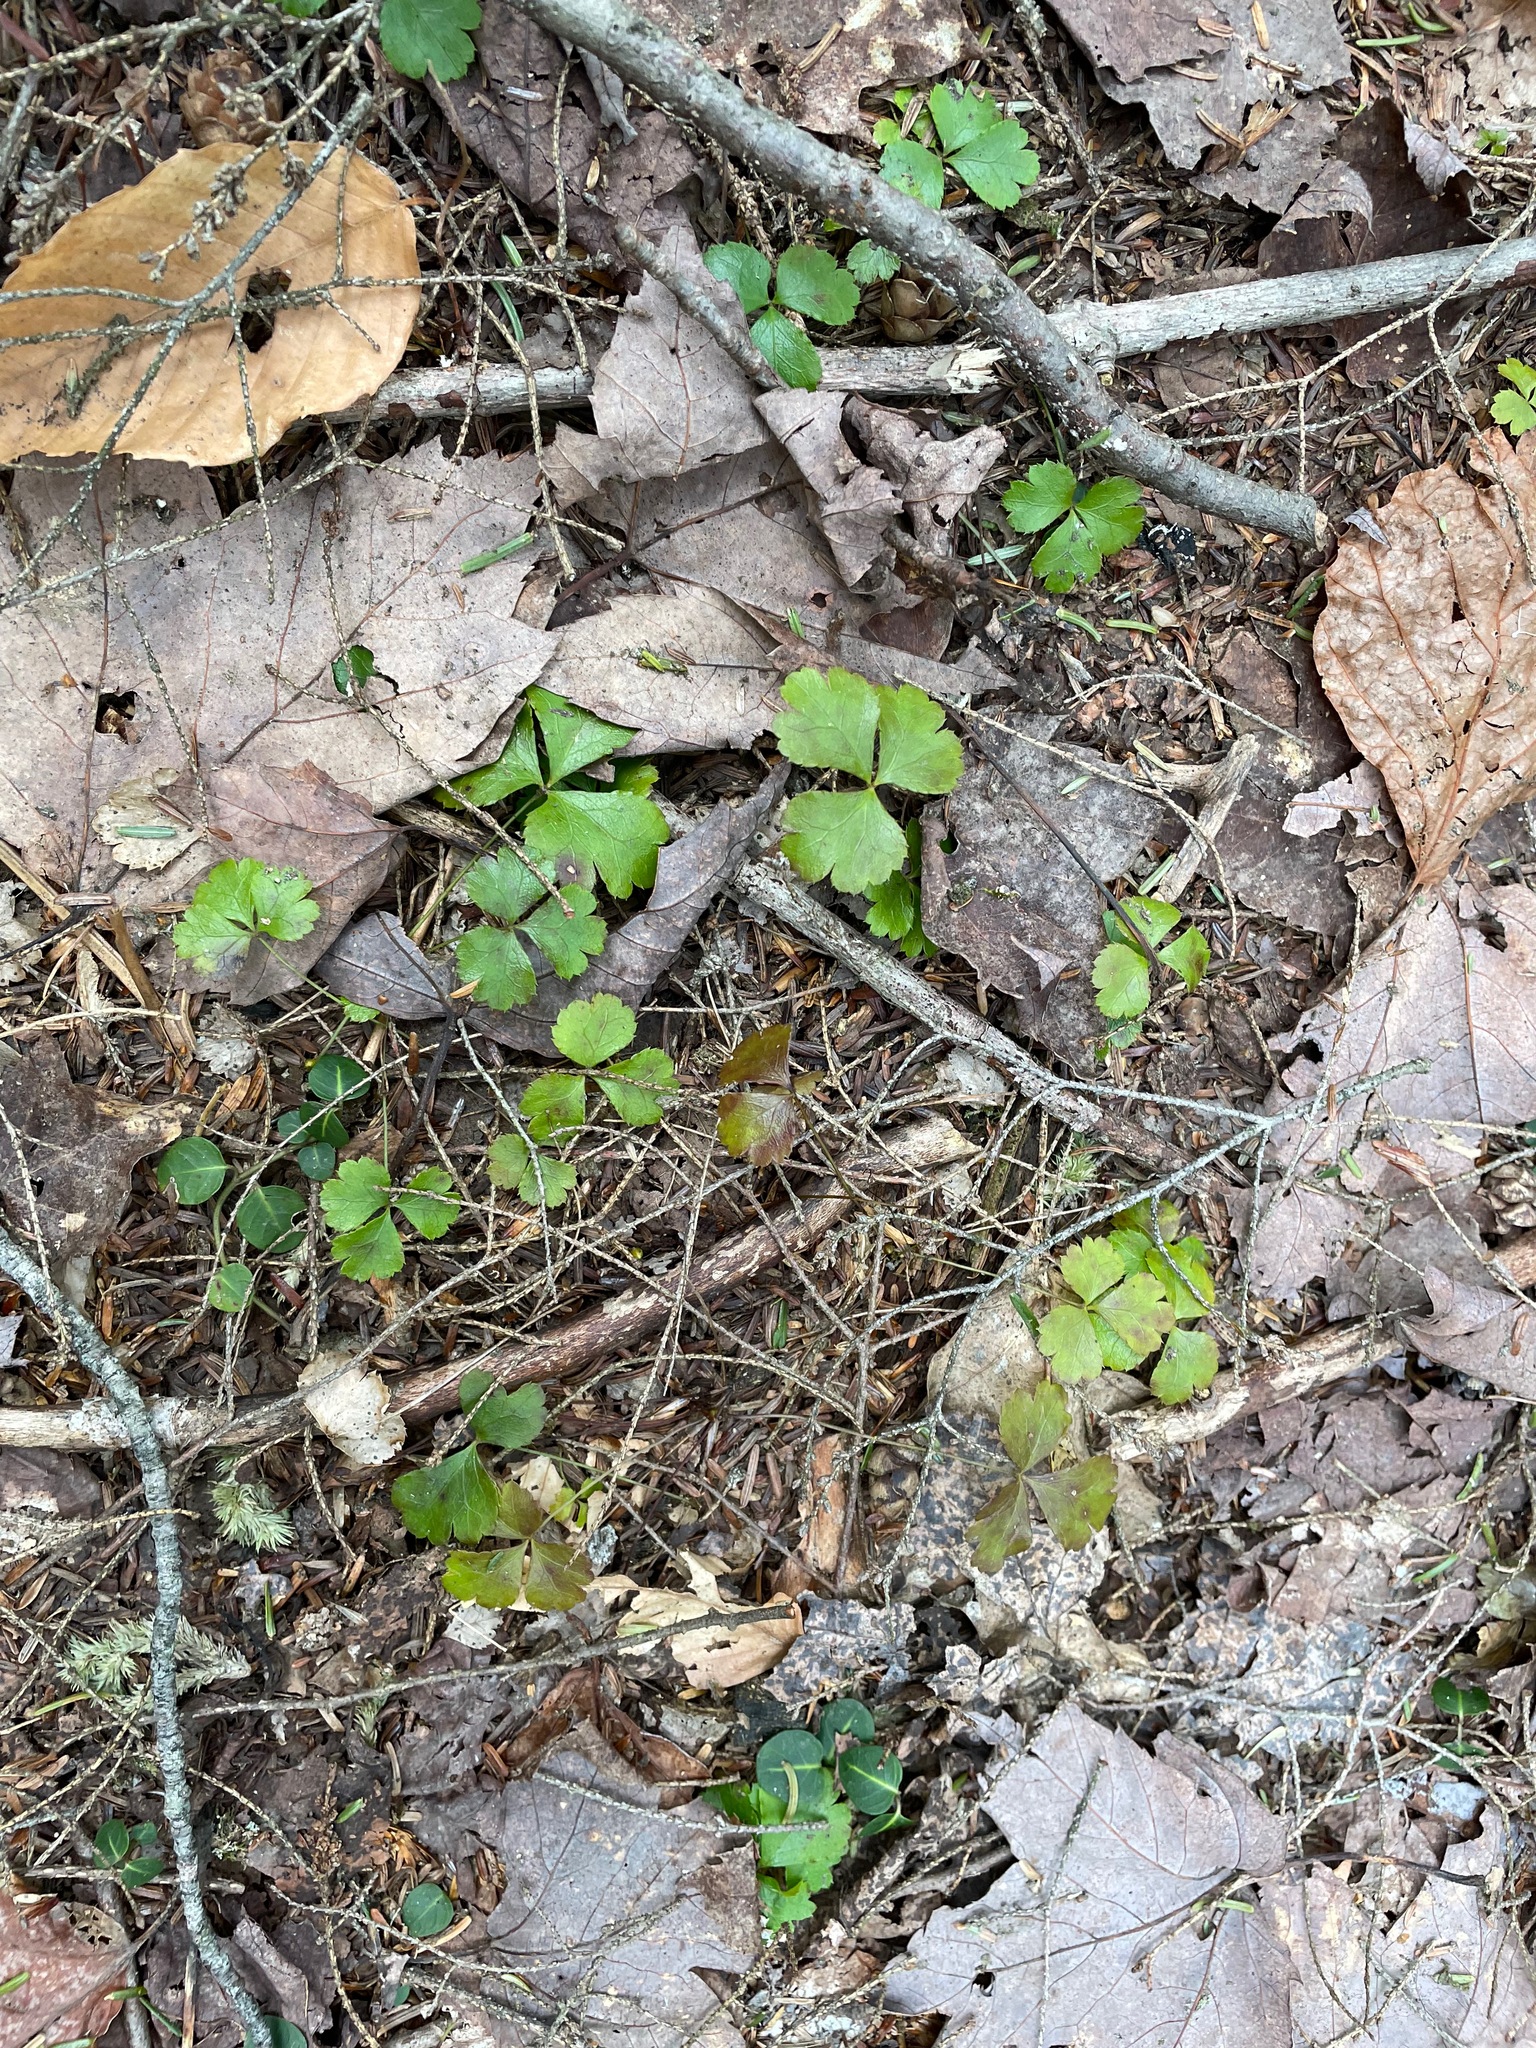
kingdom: Plantae
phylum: Tracheophyta
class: Magnoliopsida
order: Ranunculales
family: Ranunculaceae
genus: Coptis
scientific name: Coptis trifolia
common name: Canker-root
